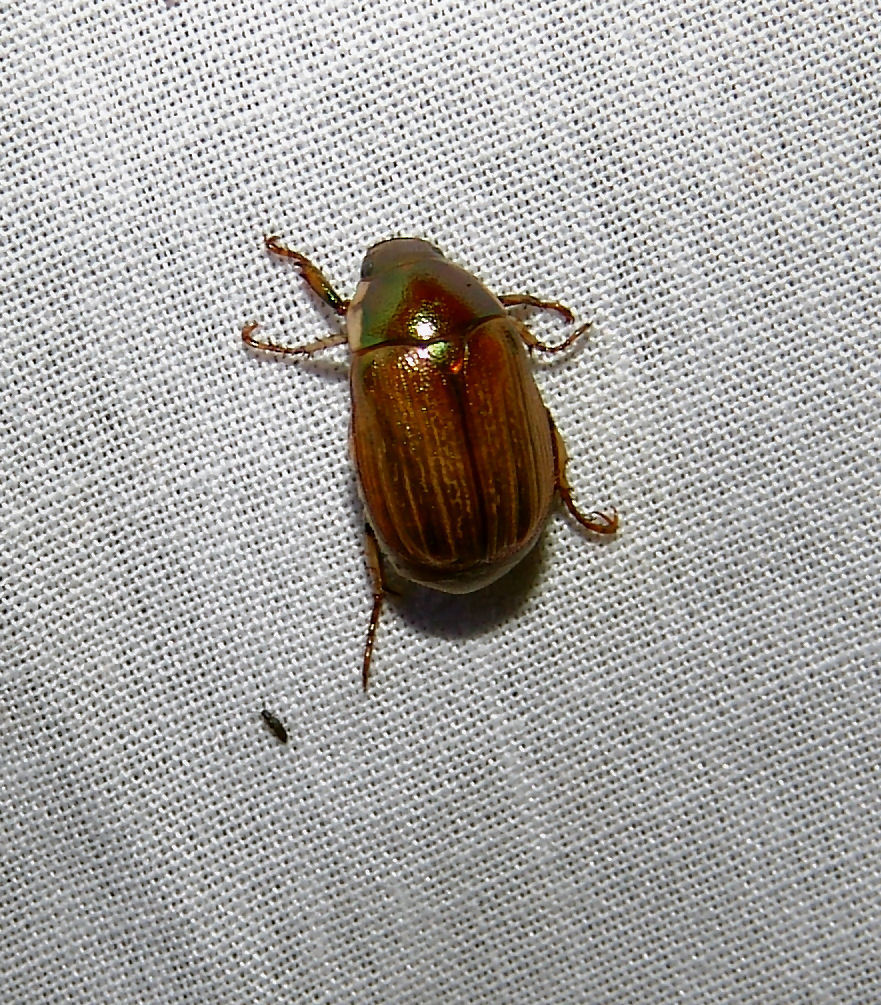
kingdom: Animalia
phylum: Arthropoda
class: Insecta
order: Coleoptera
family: Scarabaeidae
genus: Callistethus
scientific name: Callistethus marginatus
